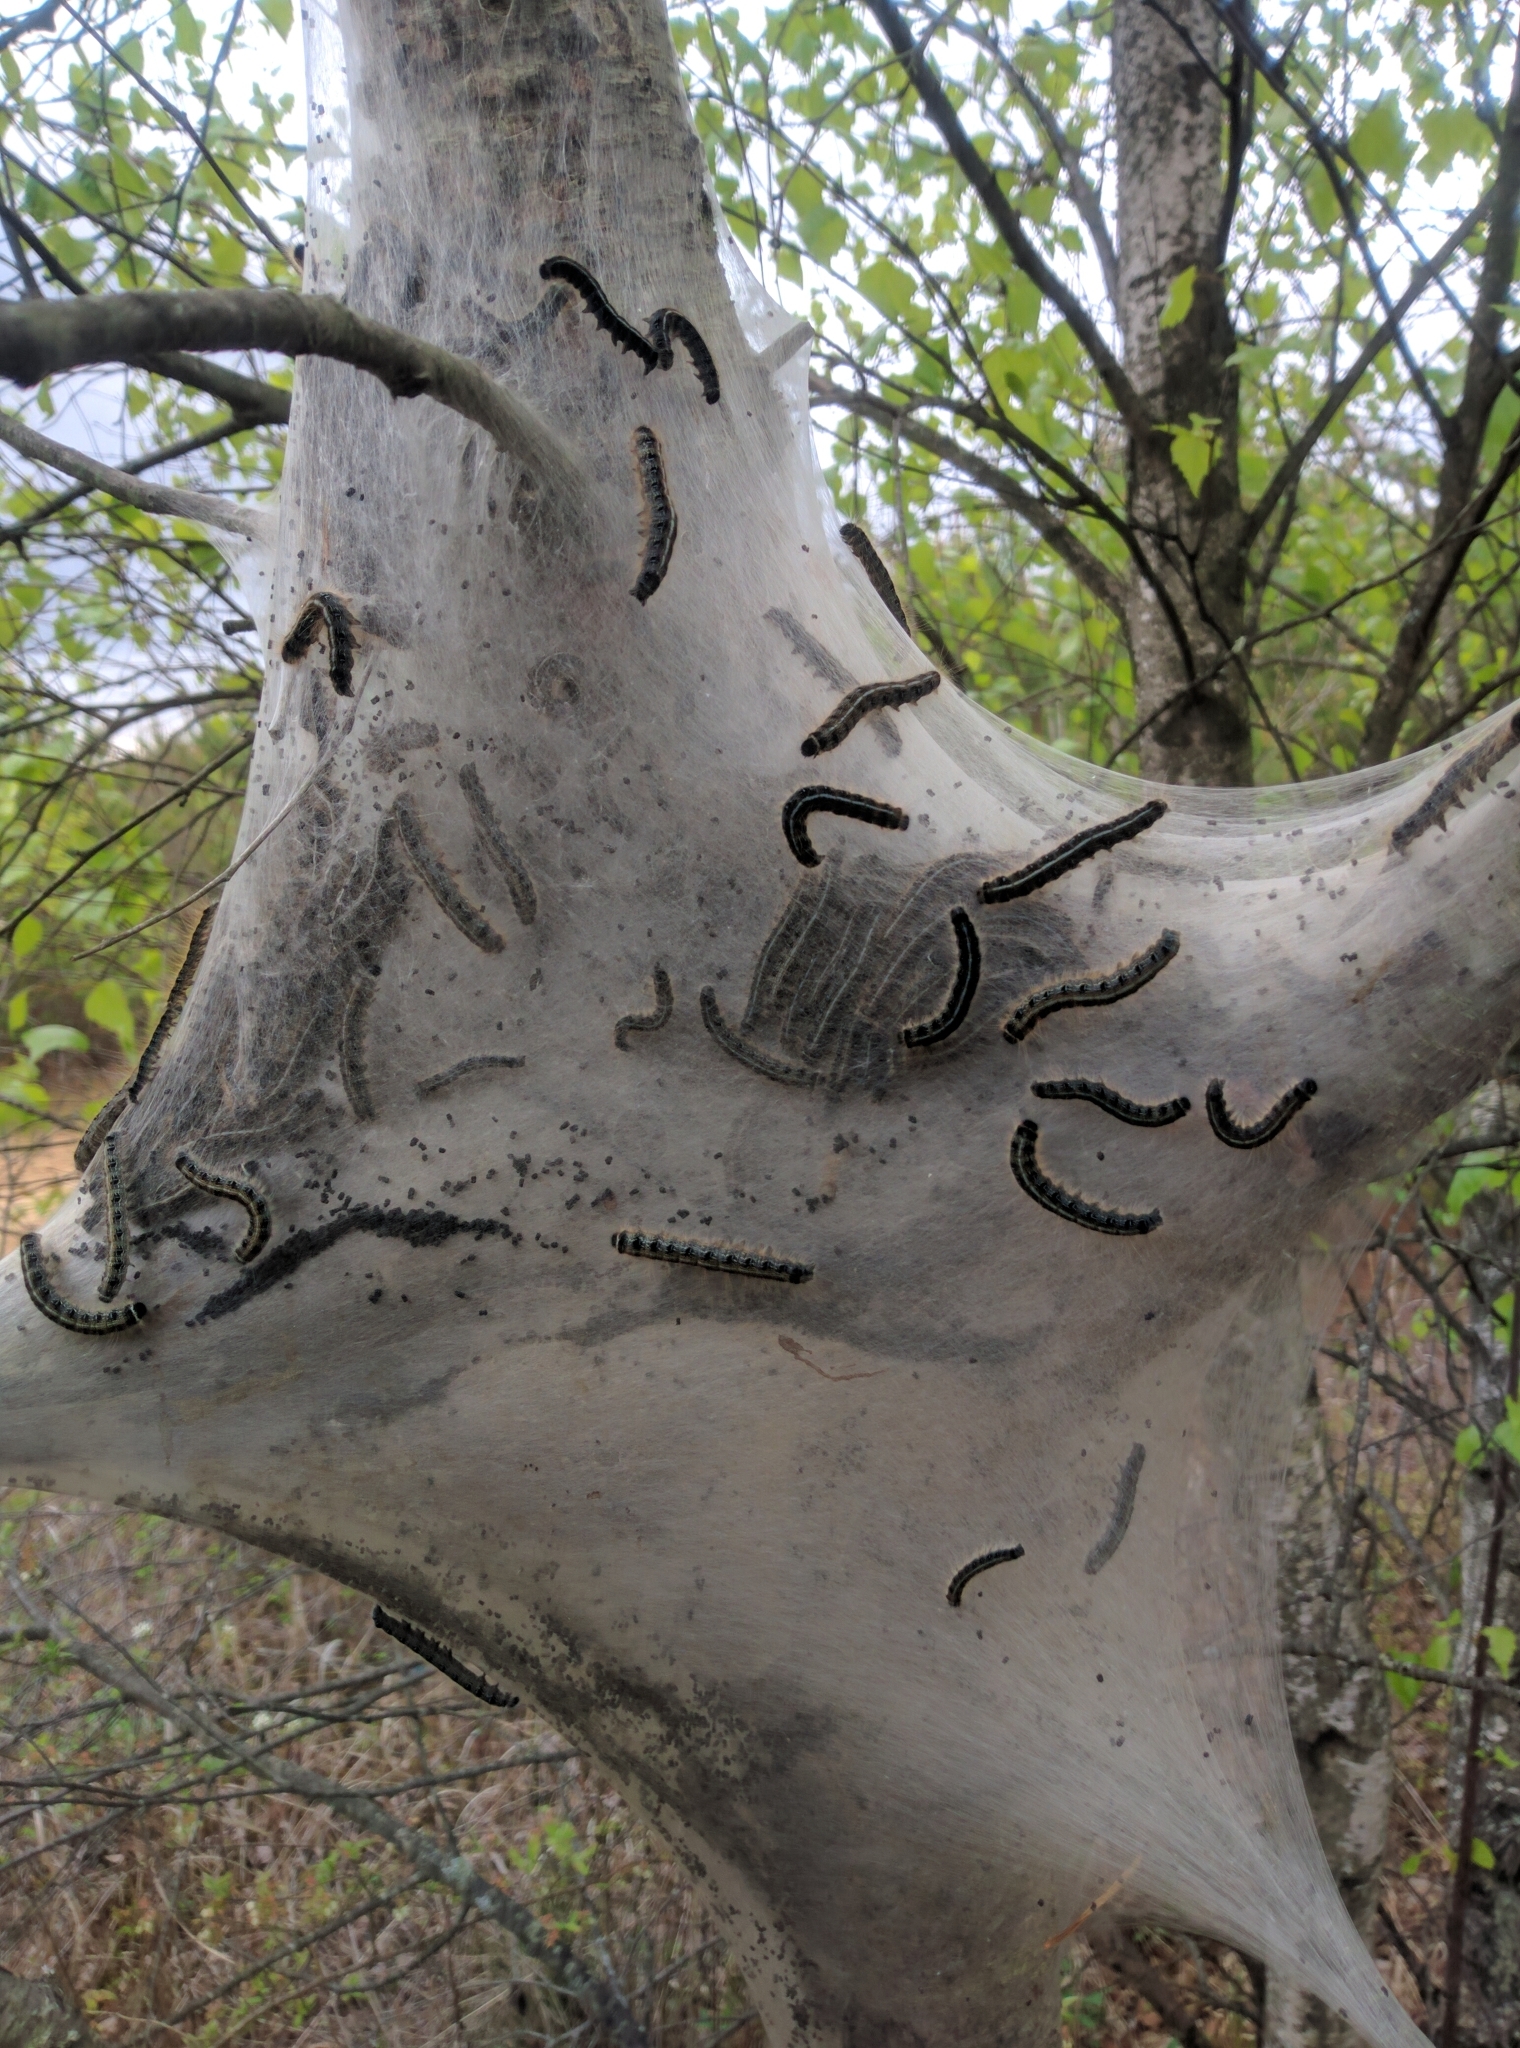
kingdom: Animalia
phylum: Arthropoda
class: Insecta
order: Lepidoptera
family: Lasiocampidae
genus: Malacosoma
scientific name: Malacosoma americana
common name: Eastern tent caterpillar moth
